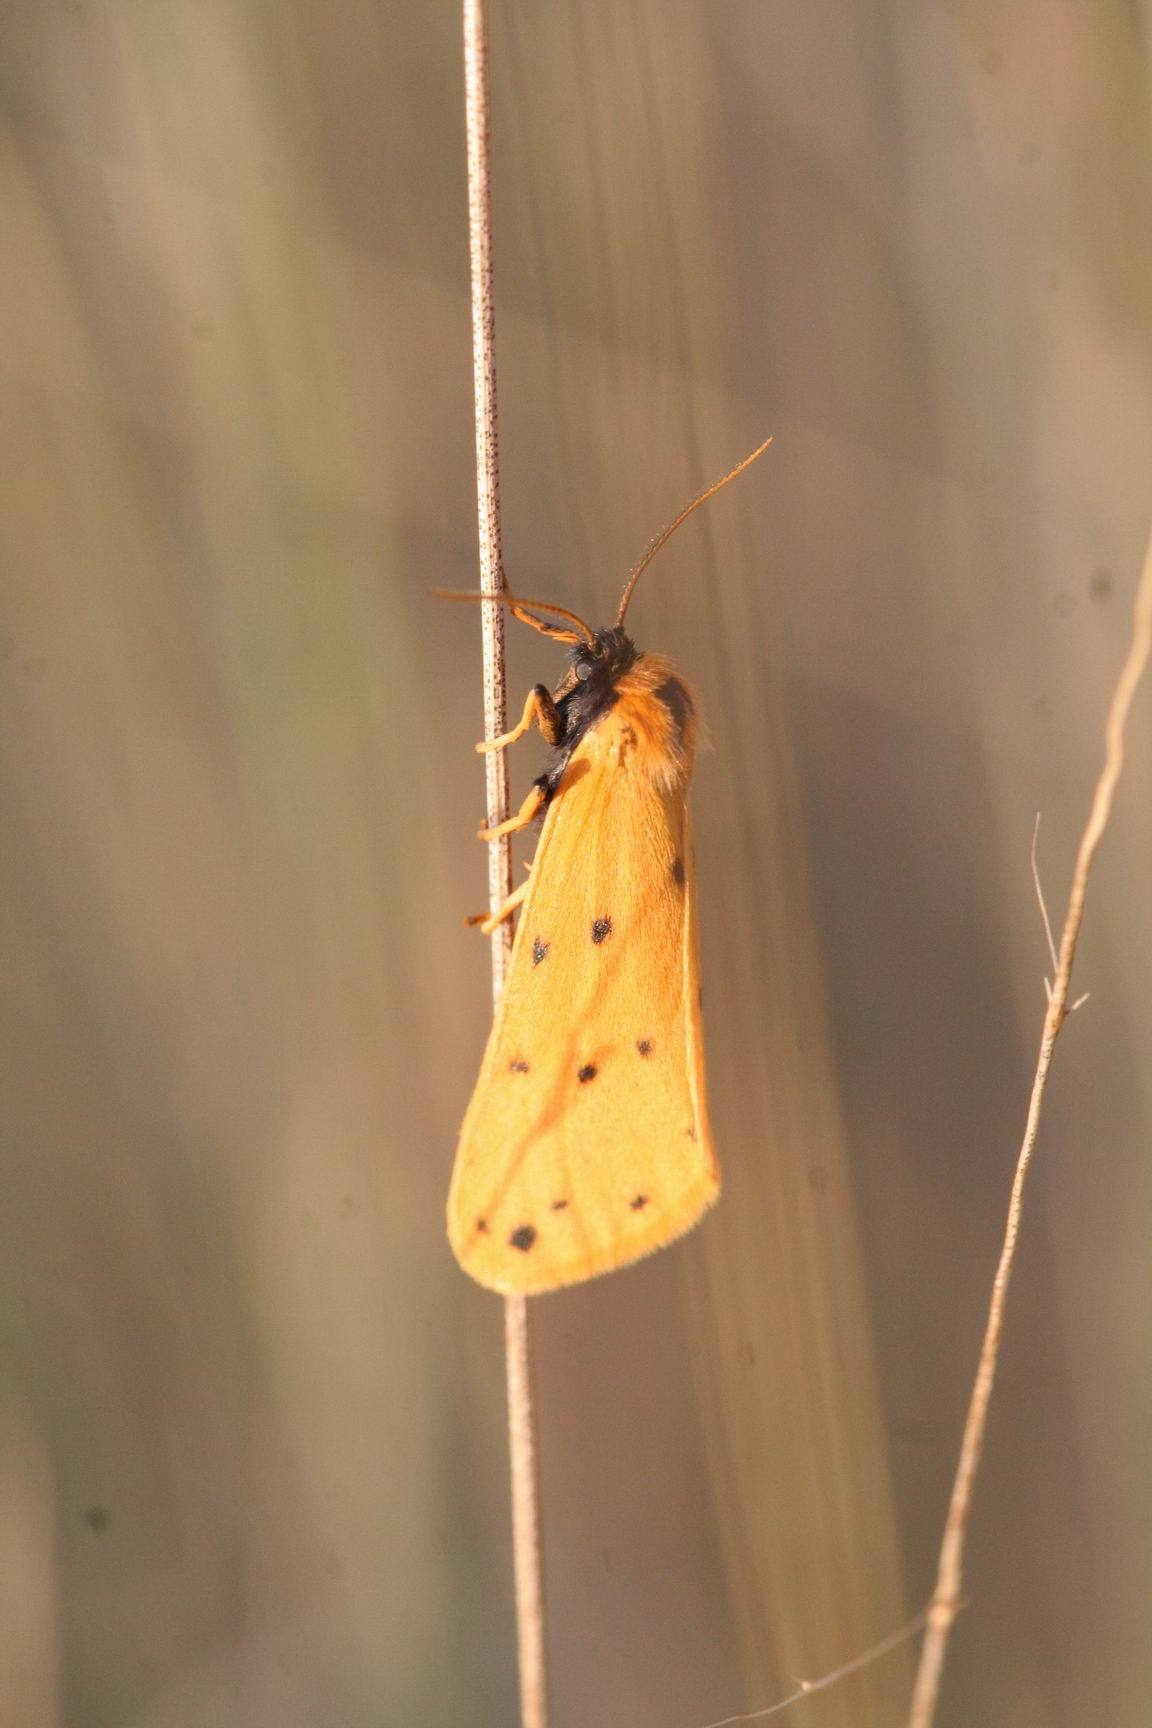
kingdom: Animalia
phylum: Arthropoda
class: Insecta
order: Lepidoptera
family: Erebidae
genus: Setina
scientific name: Setina roscida
